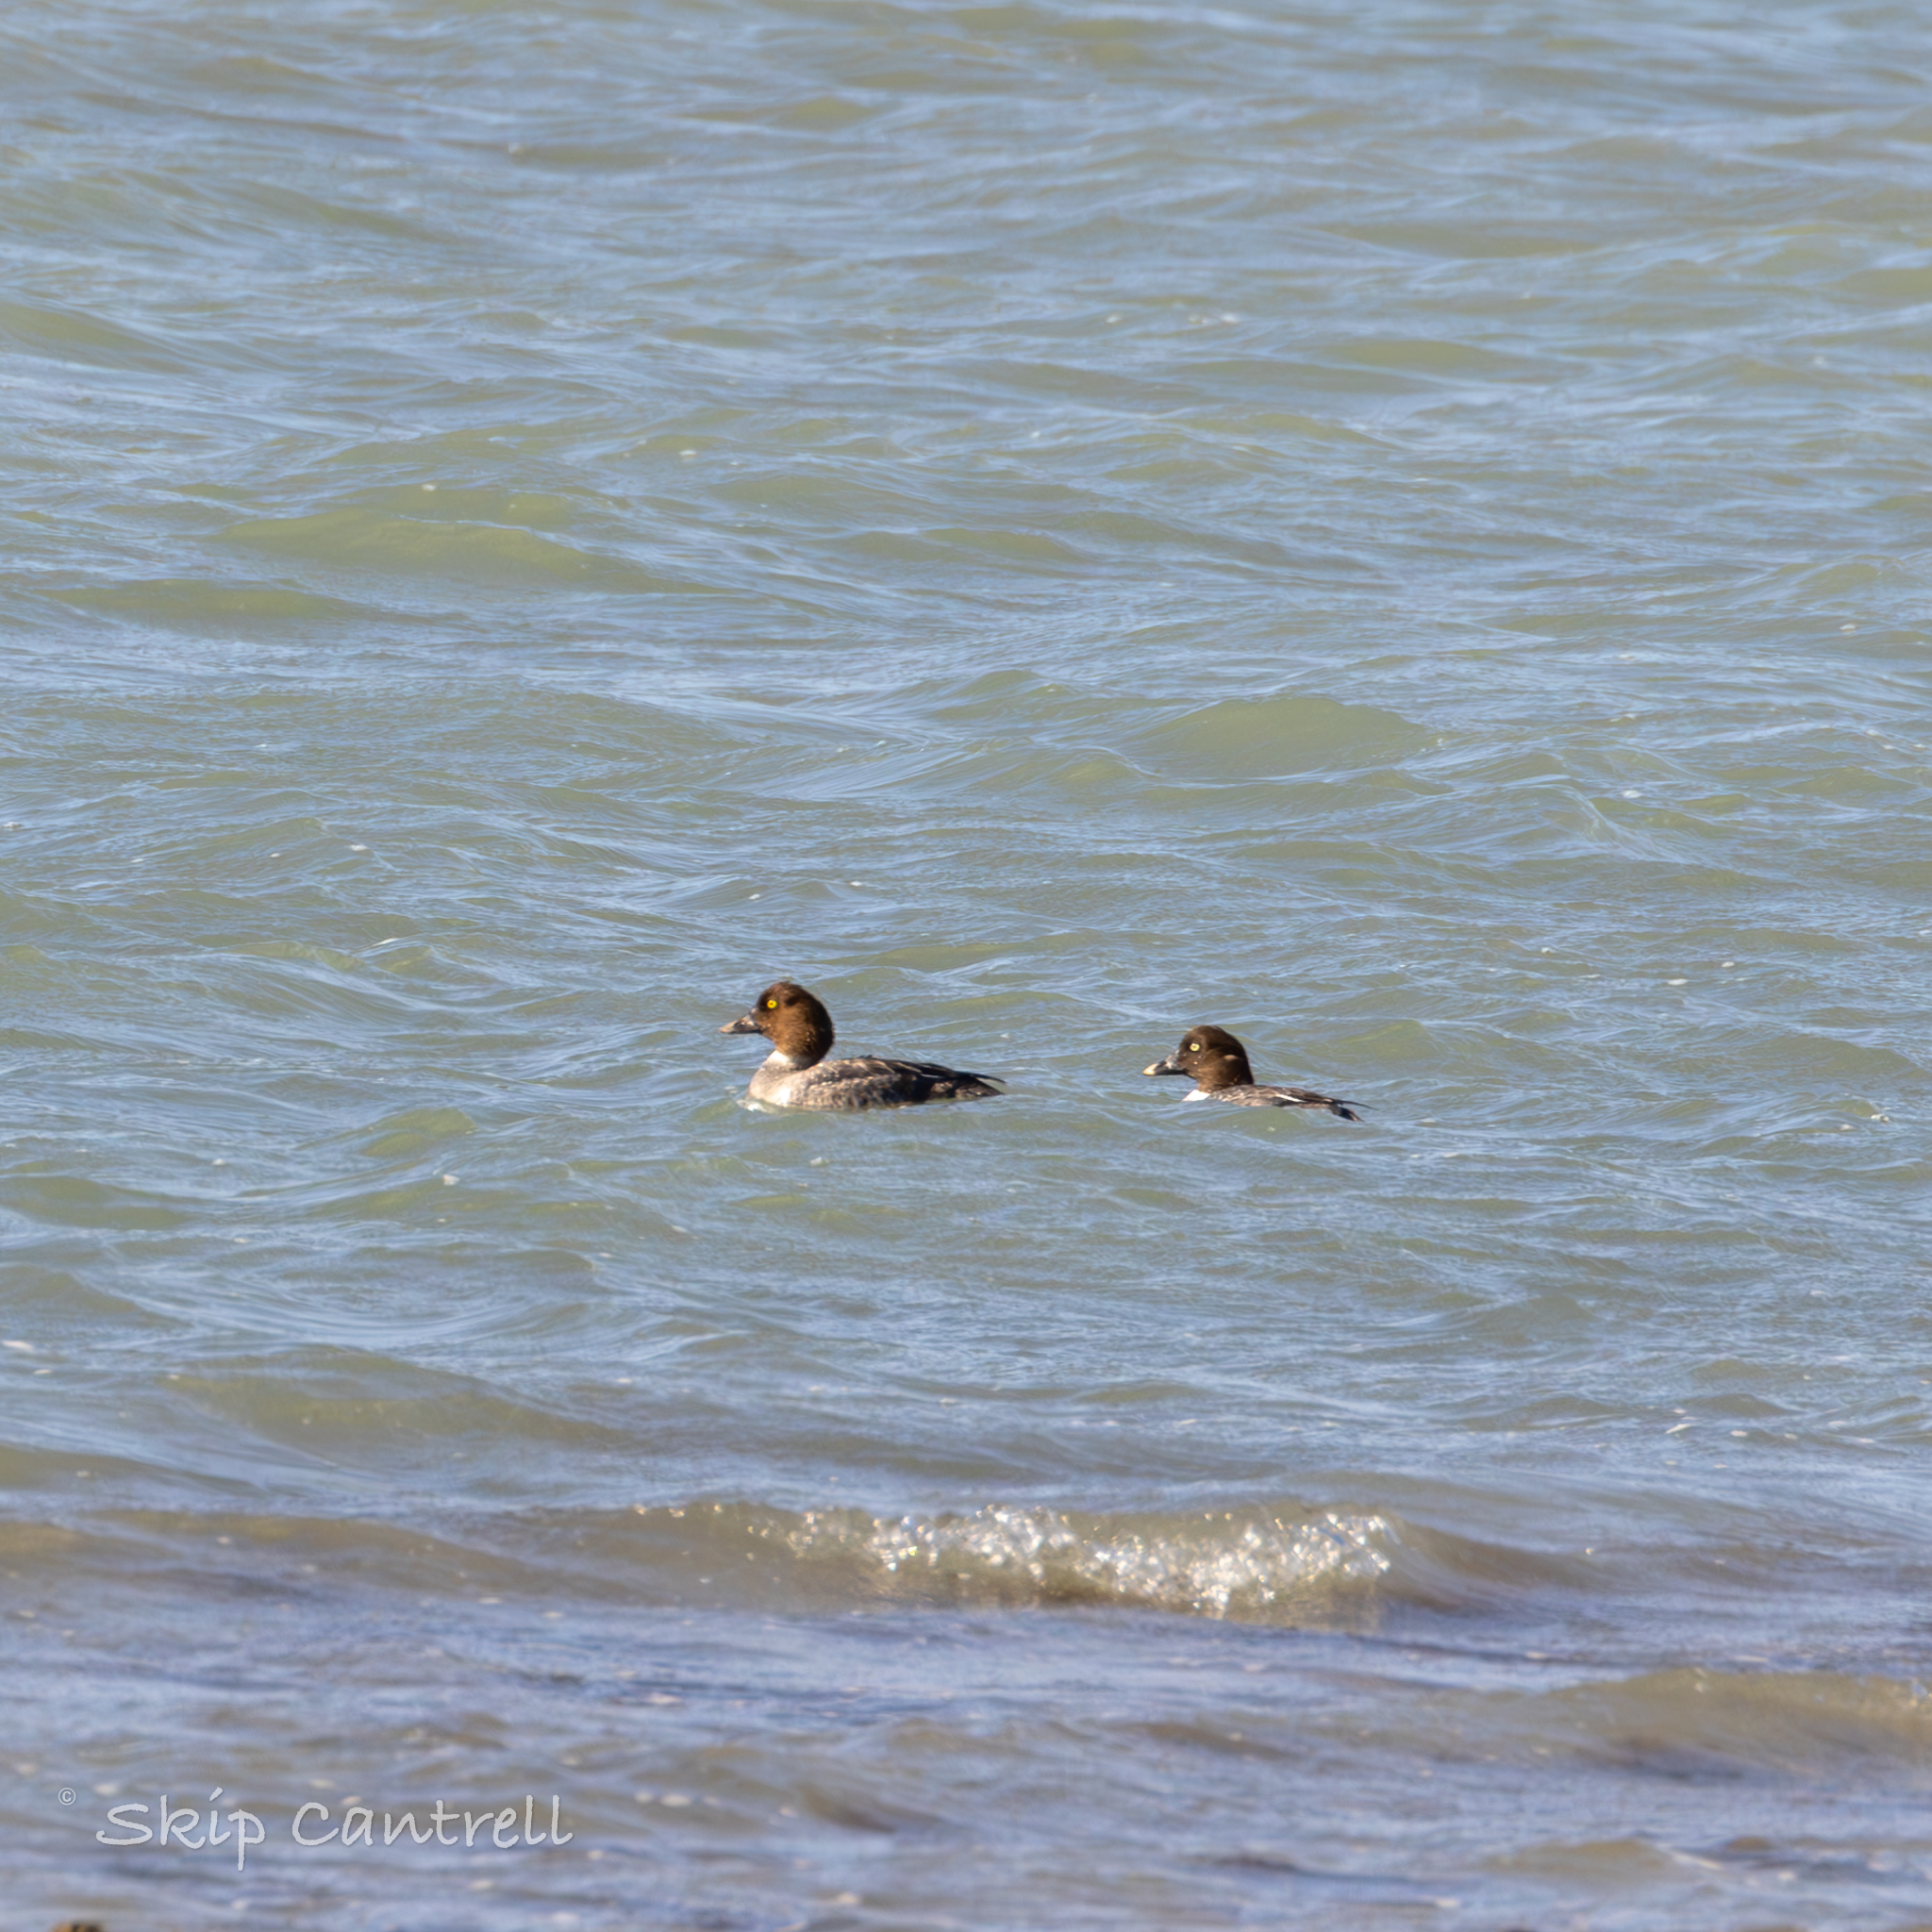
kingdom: Animalia
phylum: Chordata
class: Aves
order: Anseriformes
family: Anatidae
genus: Bucephala
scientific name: Bucephala clangula
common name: Common goldeneye
